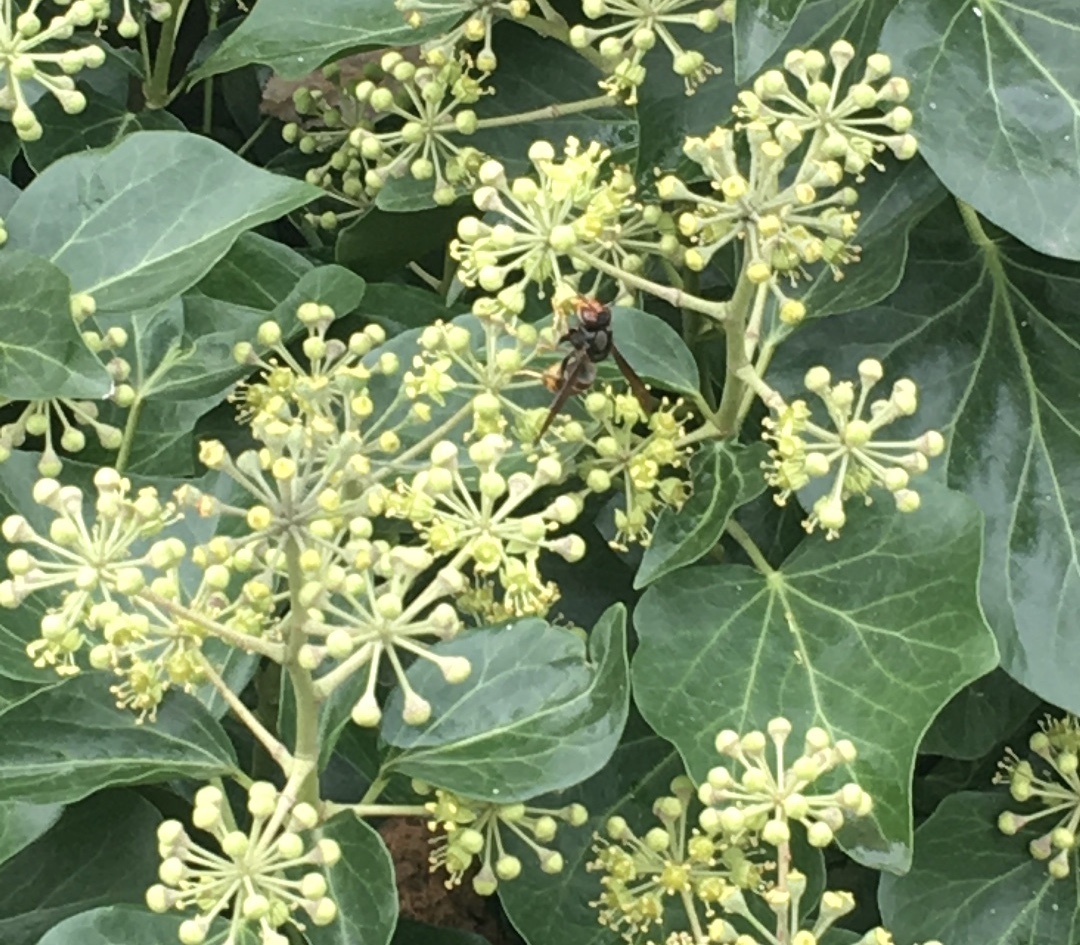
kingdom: Animalia
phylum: Arthropoda
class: Insecta
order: Hymenoptera
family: Vespidae
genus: Vespa
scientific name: Vespa velutina
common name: Asian hornet
